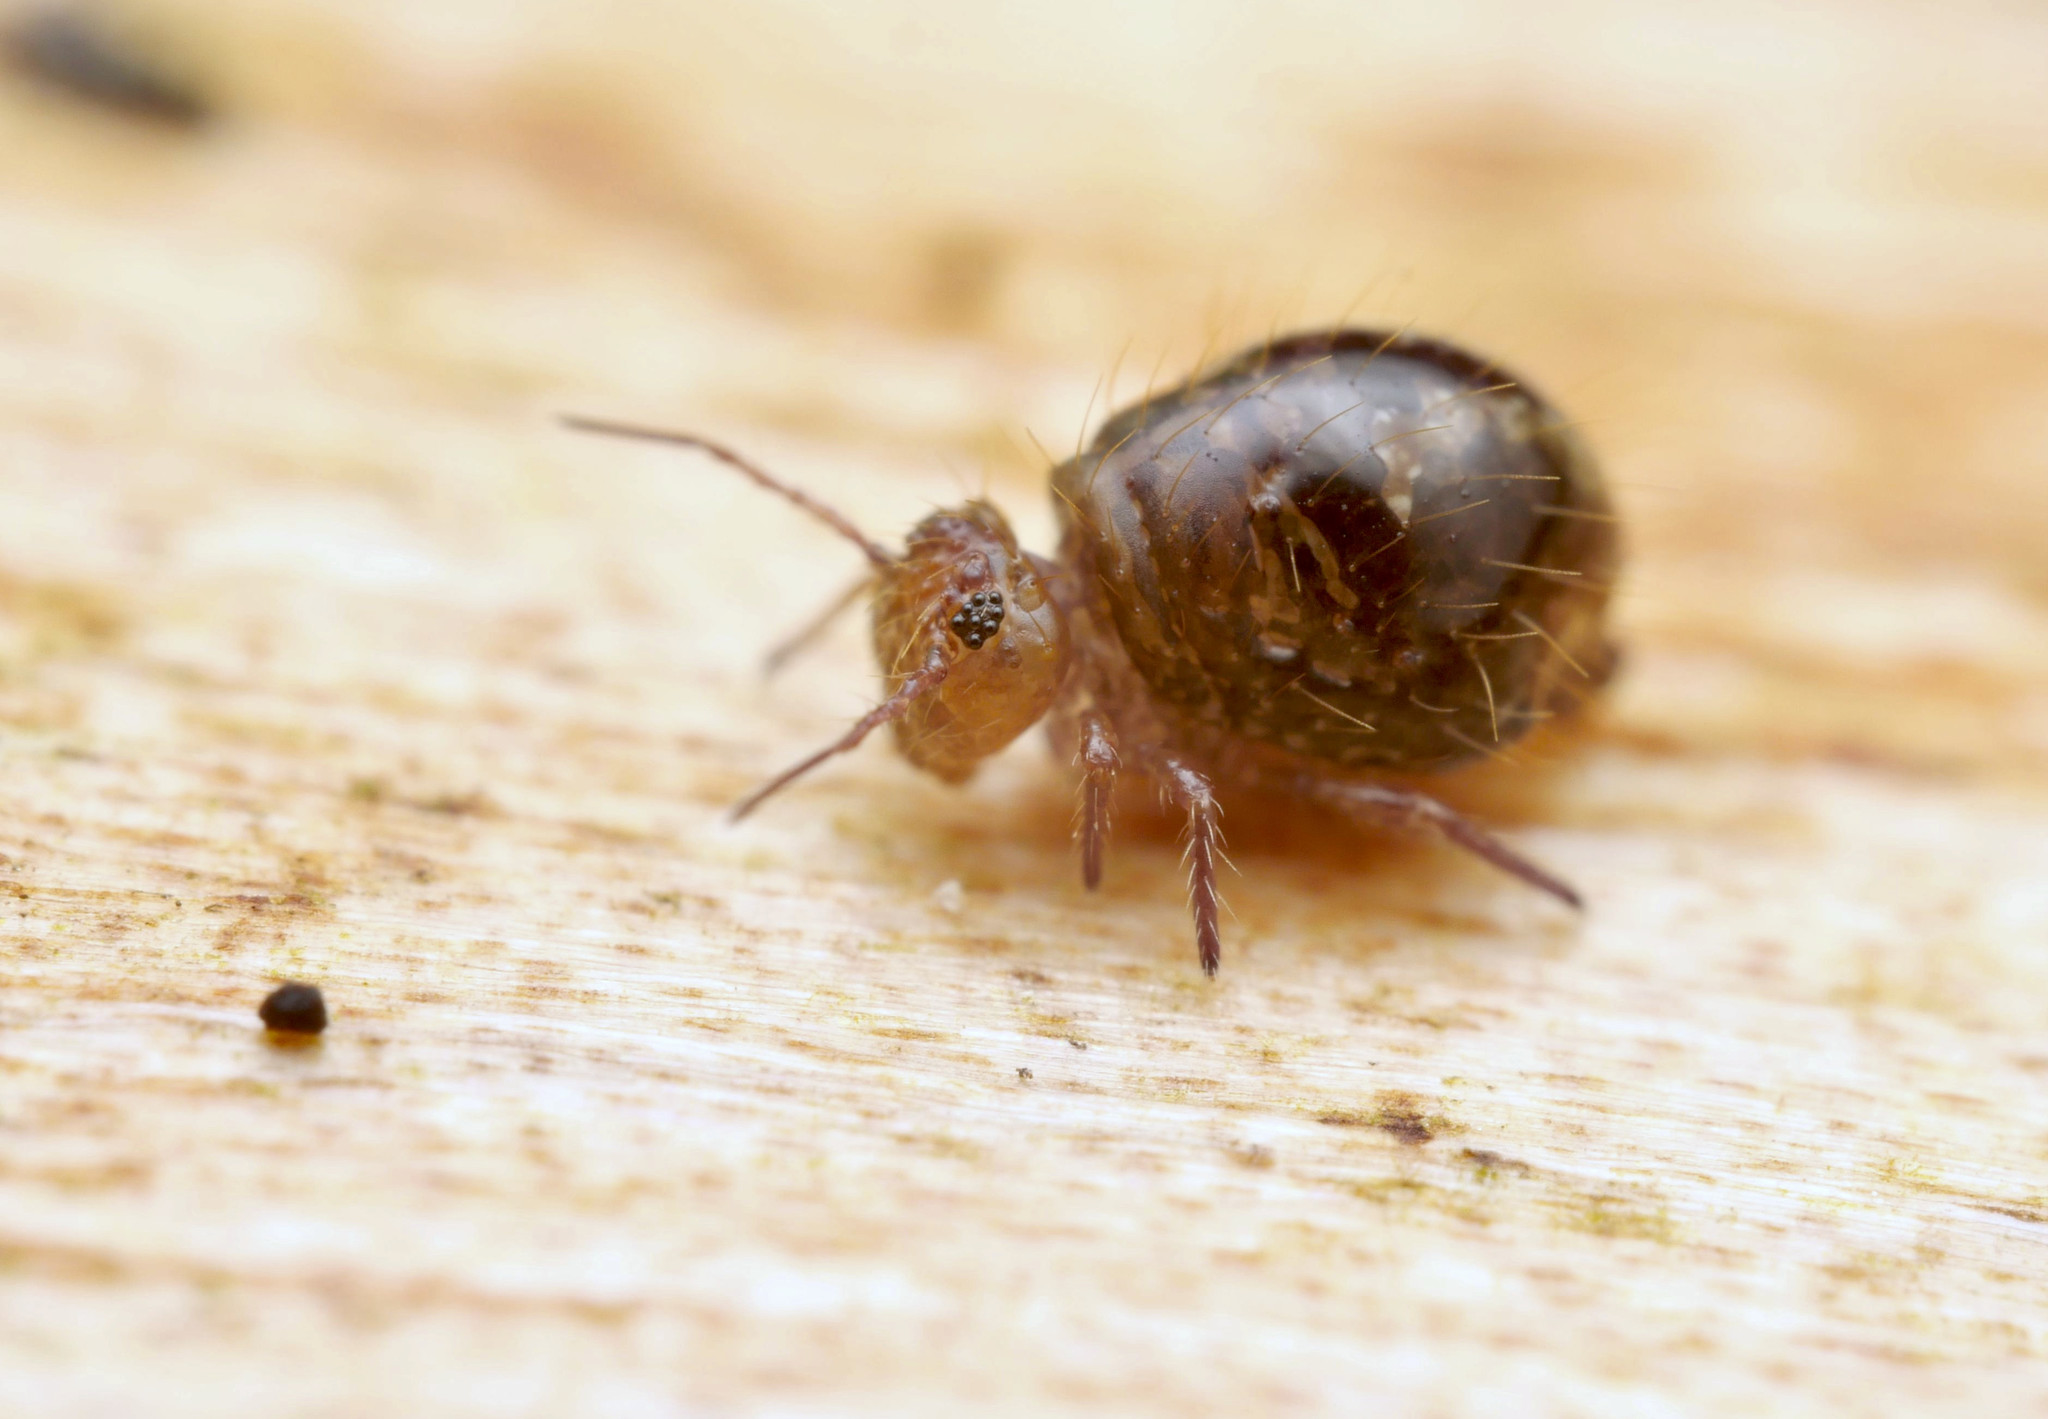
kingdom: Animalia
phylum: Arthropoda
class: Collembola
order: Symphypleona
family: Sminthuridae
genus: Allacma
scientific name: Allacma fusca
